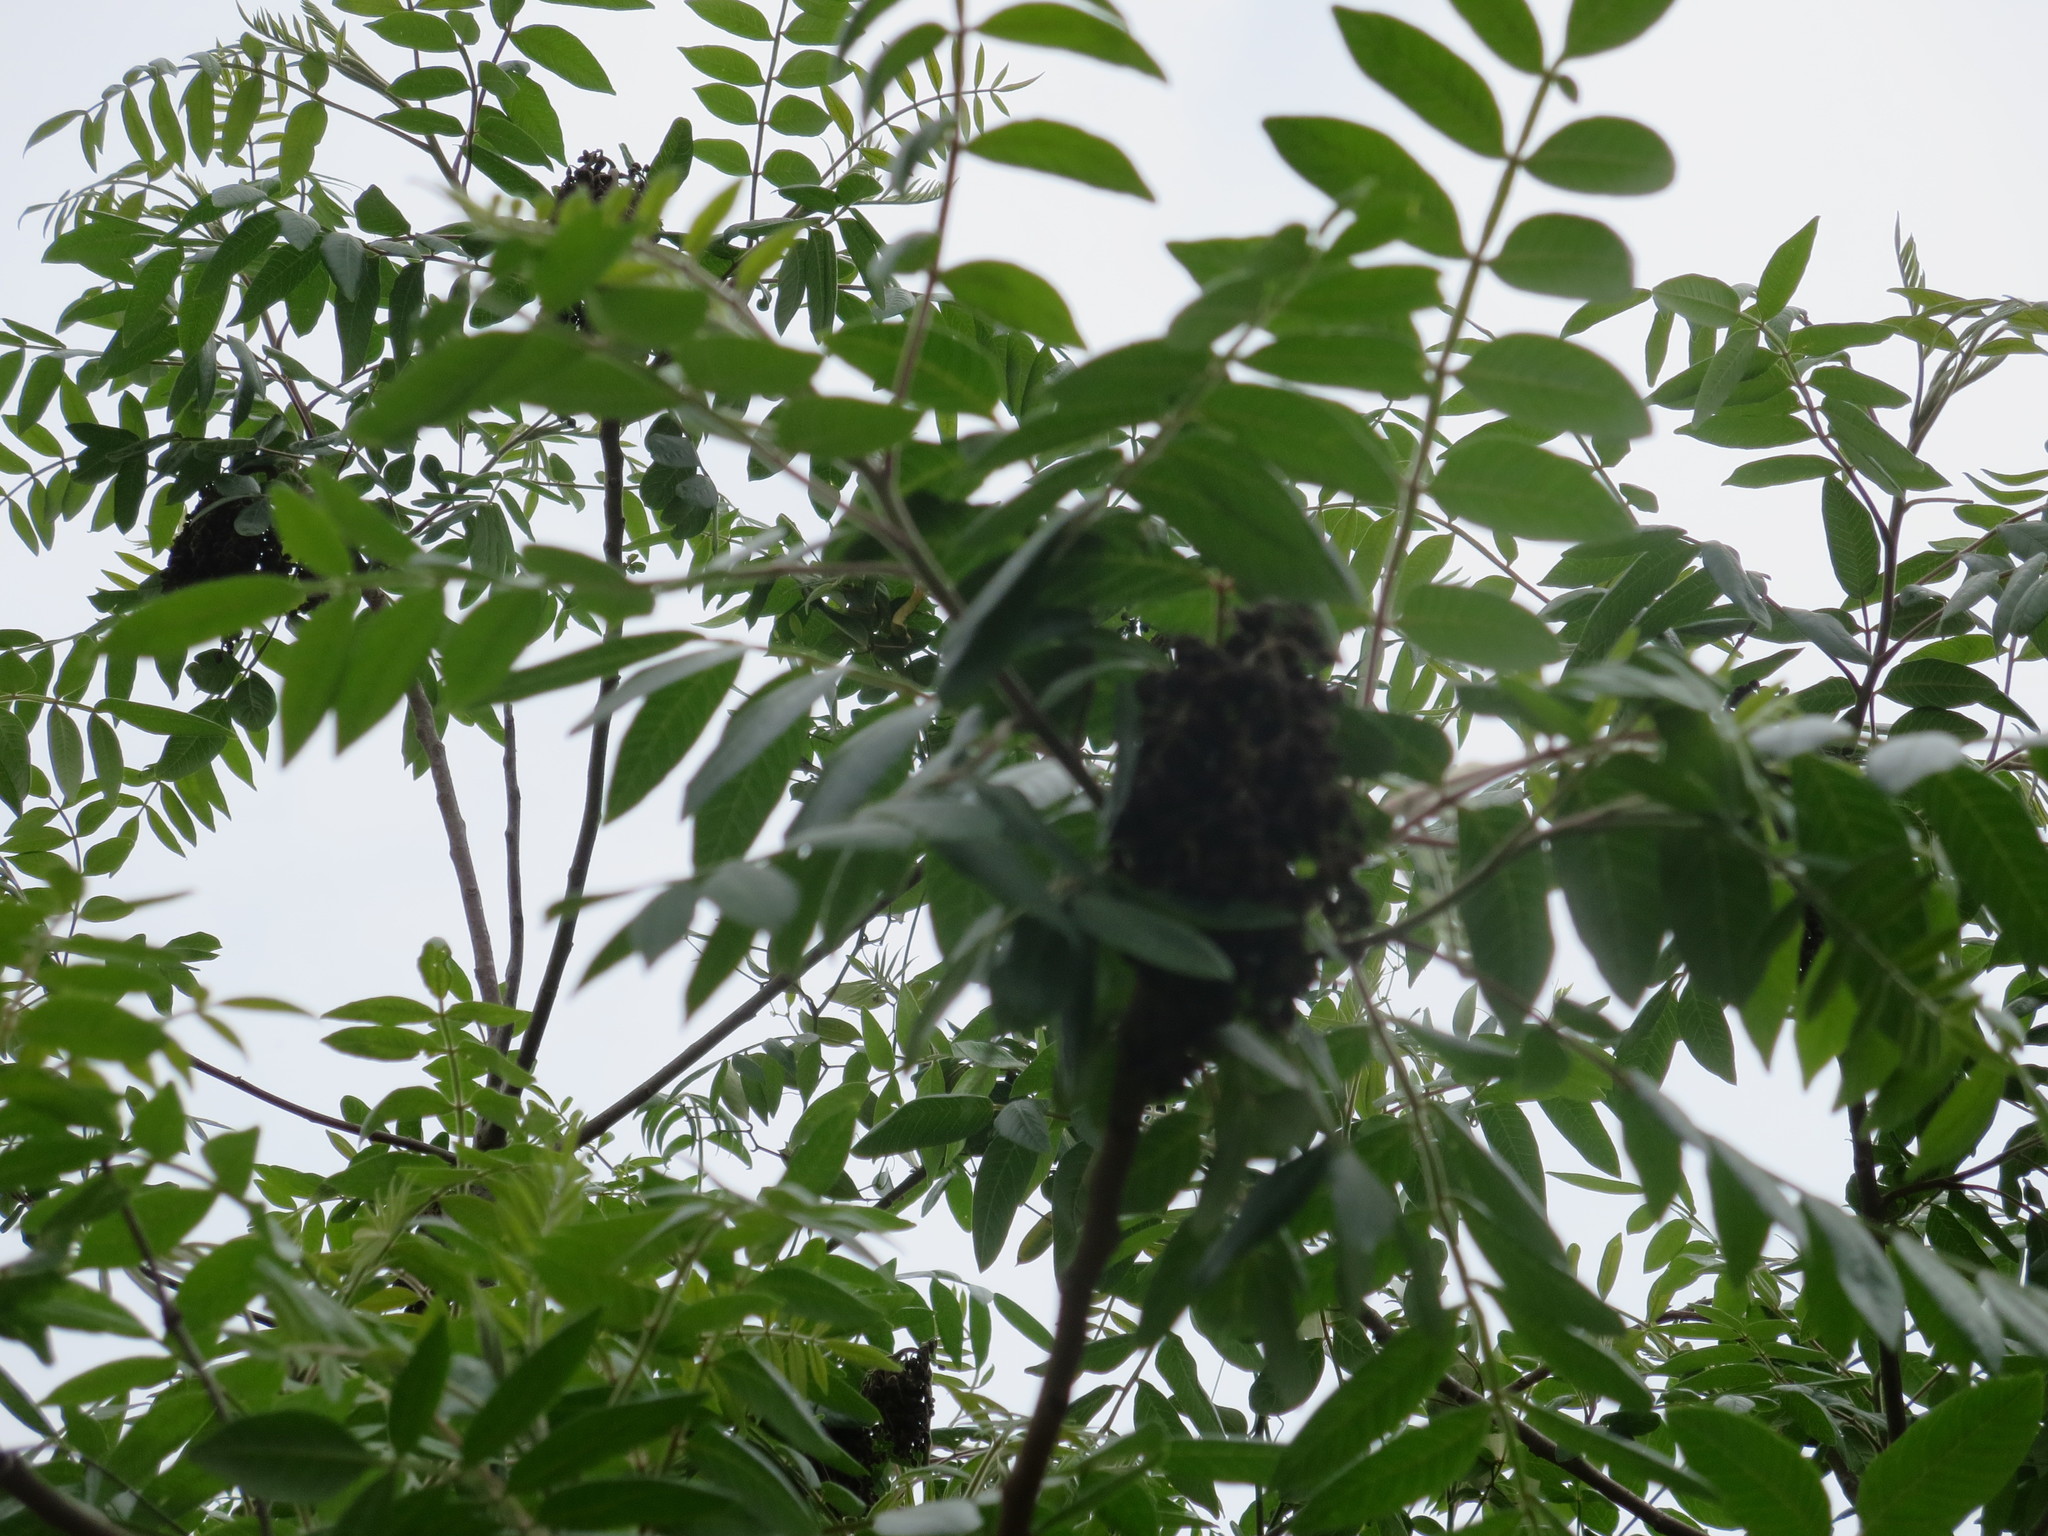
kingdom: Plantae
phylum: Tracheophyta
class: Magnoliopsida
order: Sapindales
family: Anacardiaceae
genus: Rhus
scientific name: Rhus copallina
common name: Shining sumac
